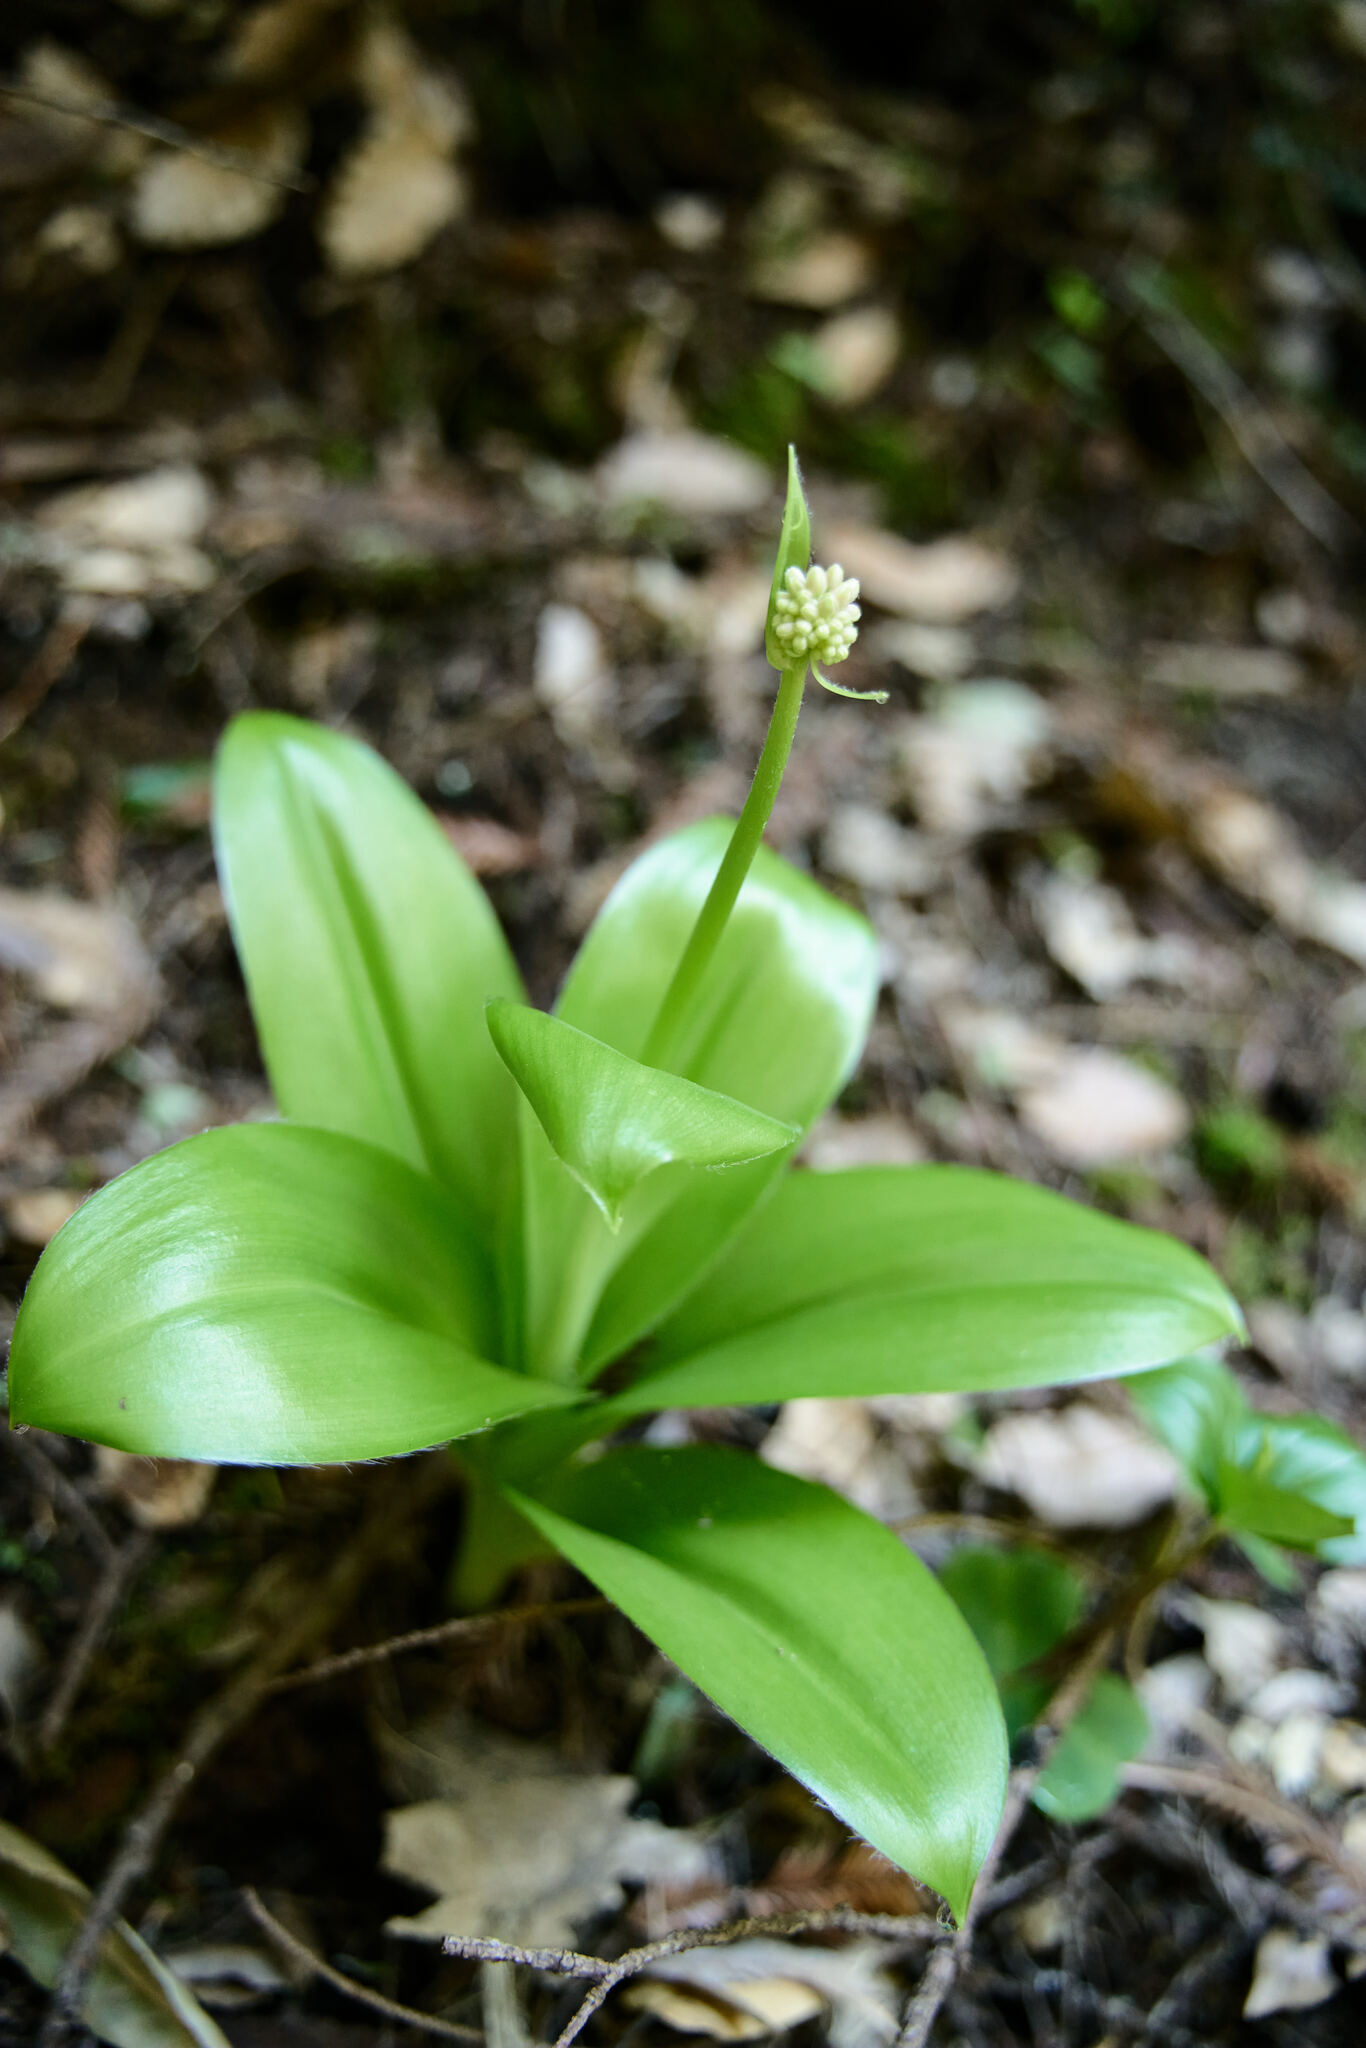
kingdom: Plantae
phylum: Tracheophyta
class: Liliopsida
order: Liliales
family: Liliaceae
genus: Clintonia
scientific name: Clintonia andrewsiana
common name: Red clintonia
